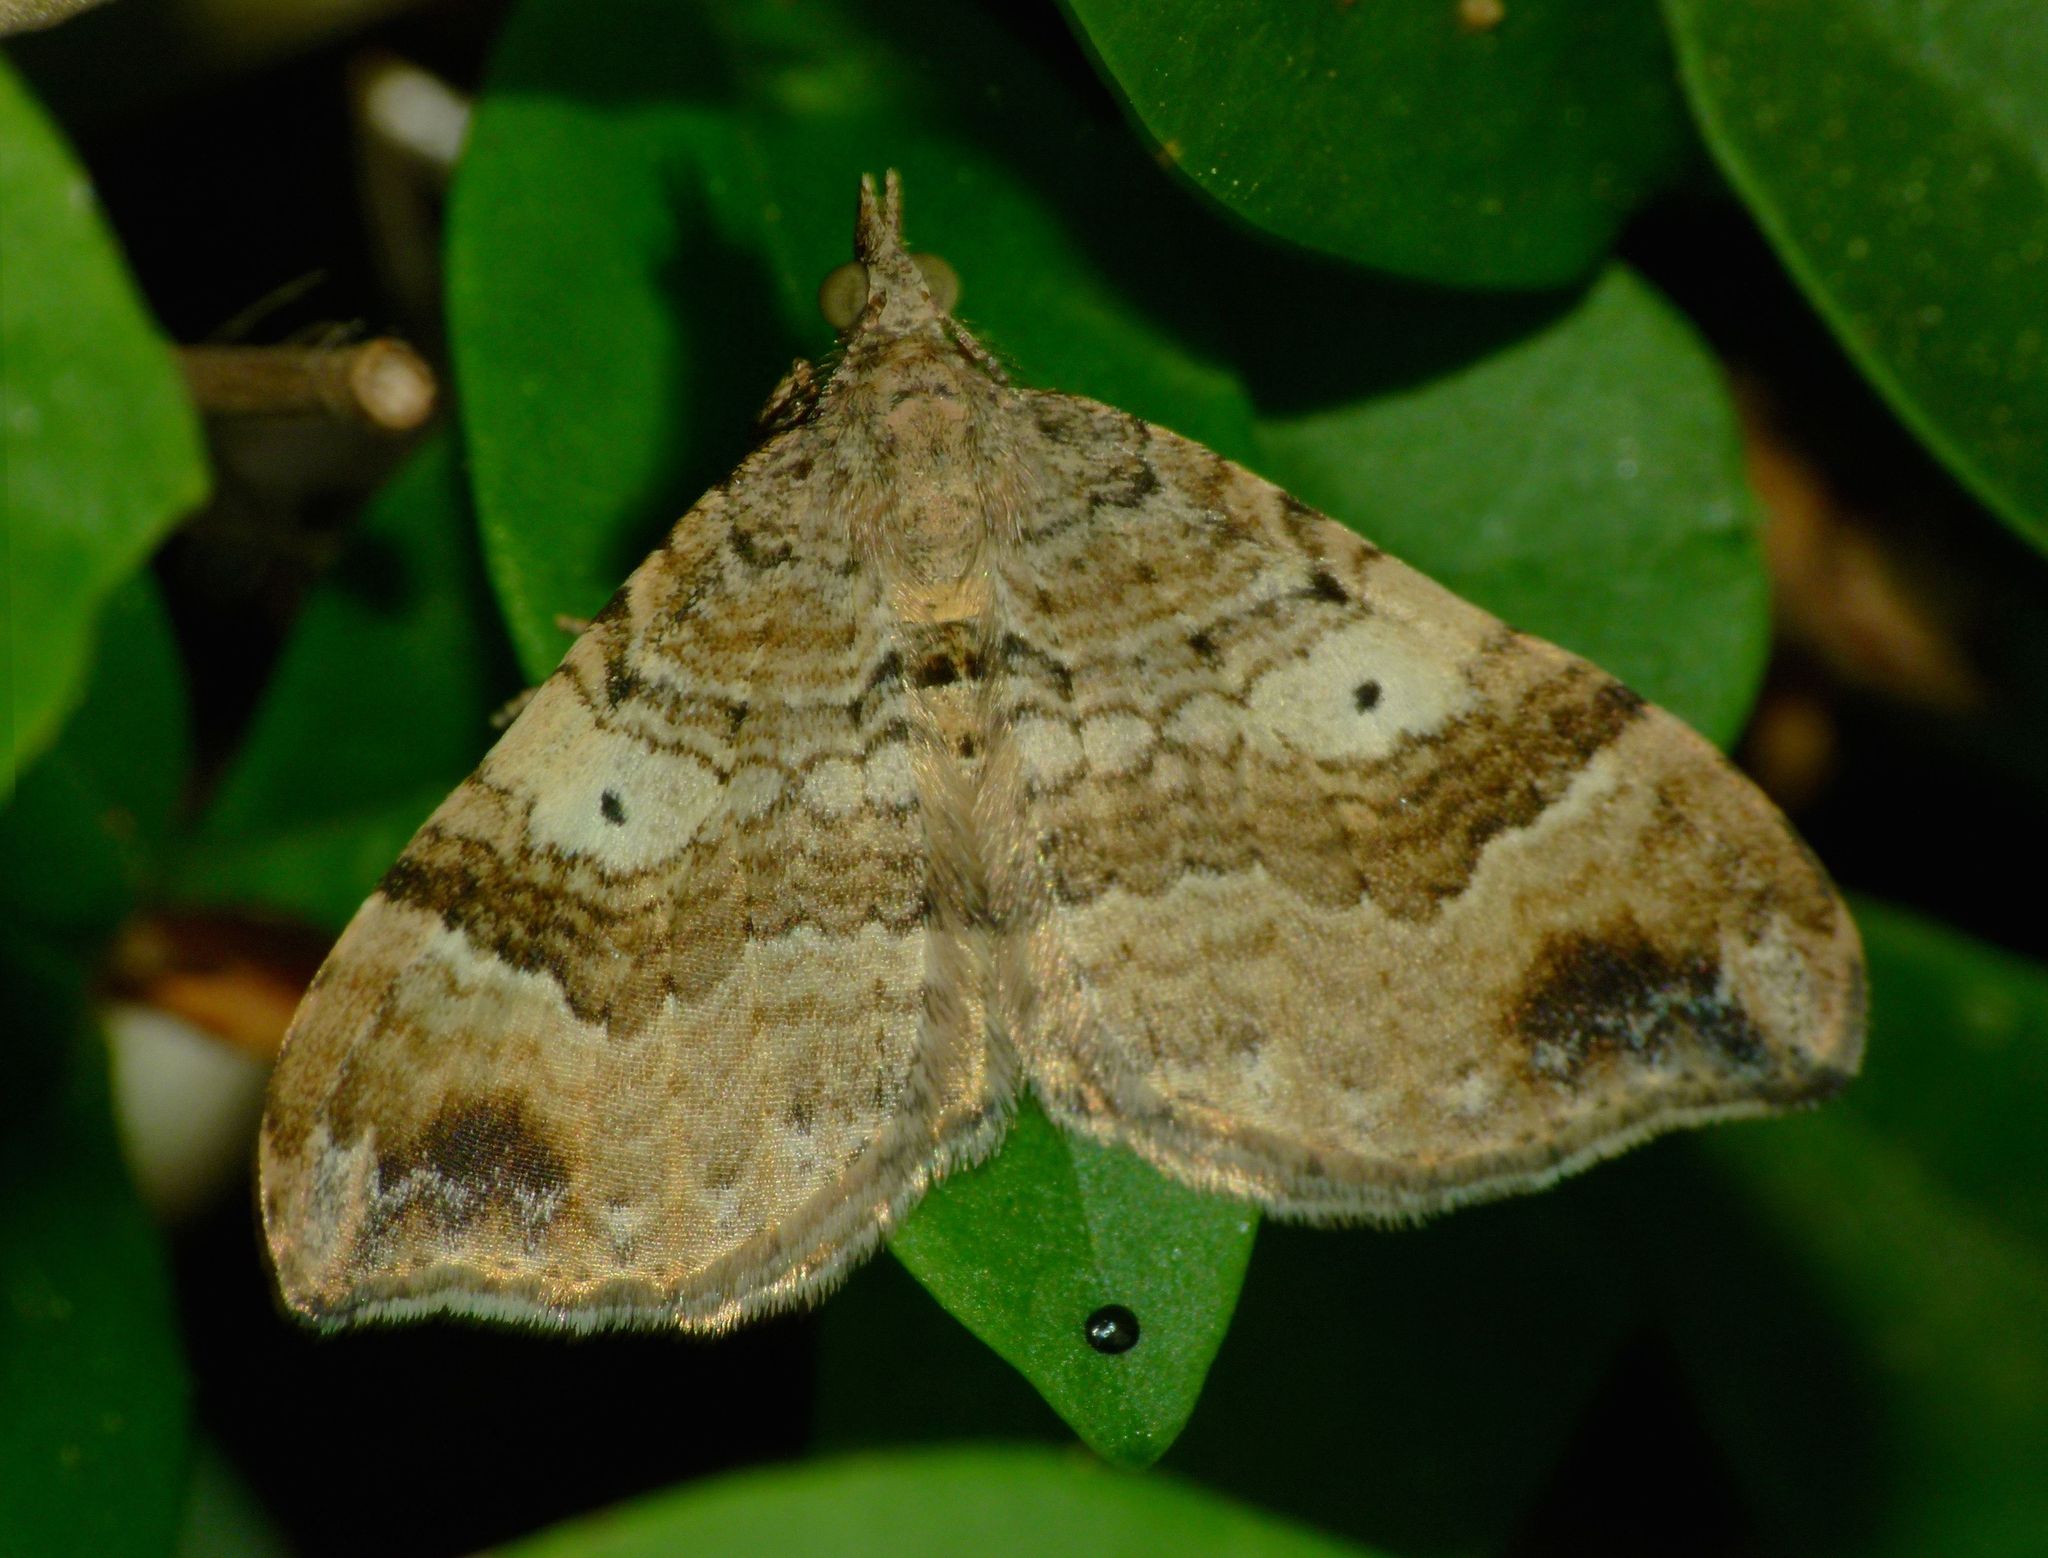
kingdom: Animalia
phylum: Arthropoda
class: Insecta
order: Lepidoptera
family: Geometridae
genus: Homodotis
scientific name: Homodotis megaspilata
